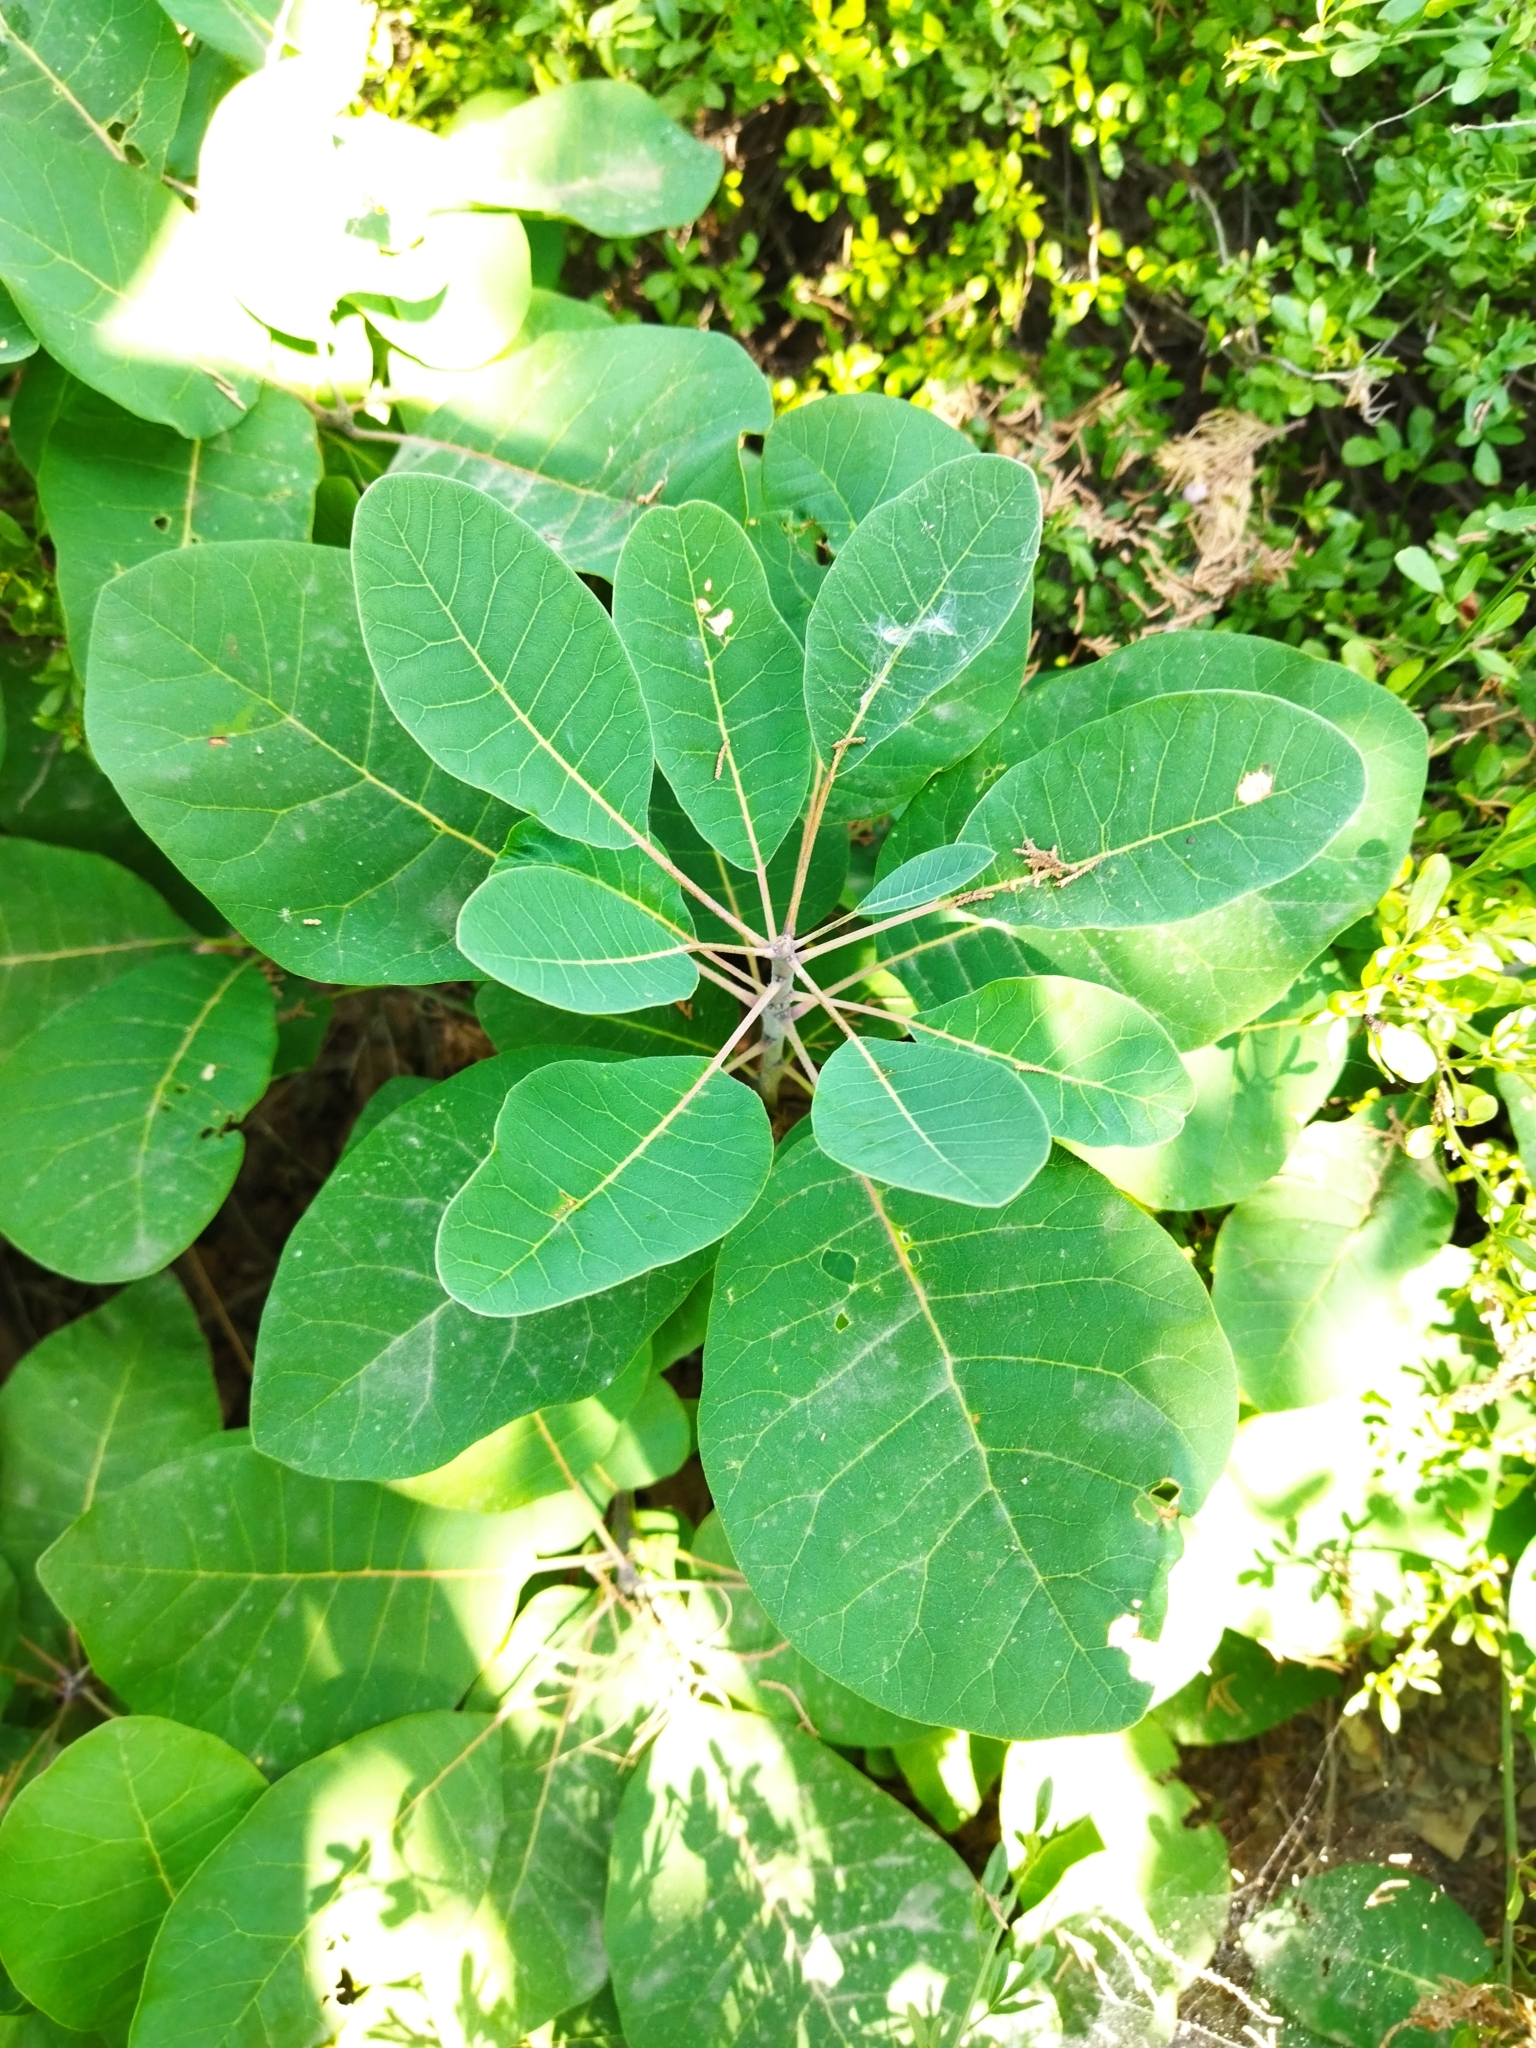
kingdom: Plantae
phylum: Tracheophyta
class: Magnoliopsida
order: Sapindales
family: Anacardiaceae
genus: Cotinus
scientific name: Cotinus coggygria
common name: Smoke-tree
